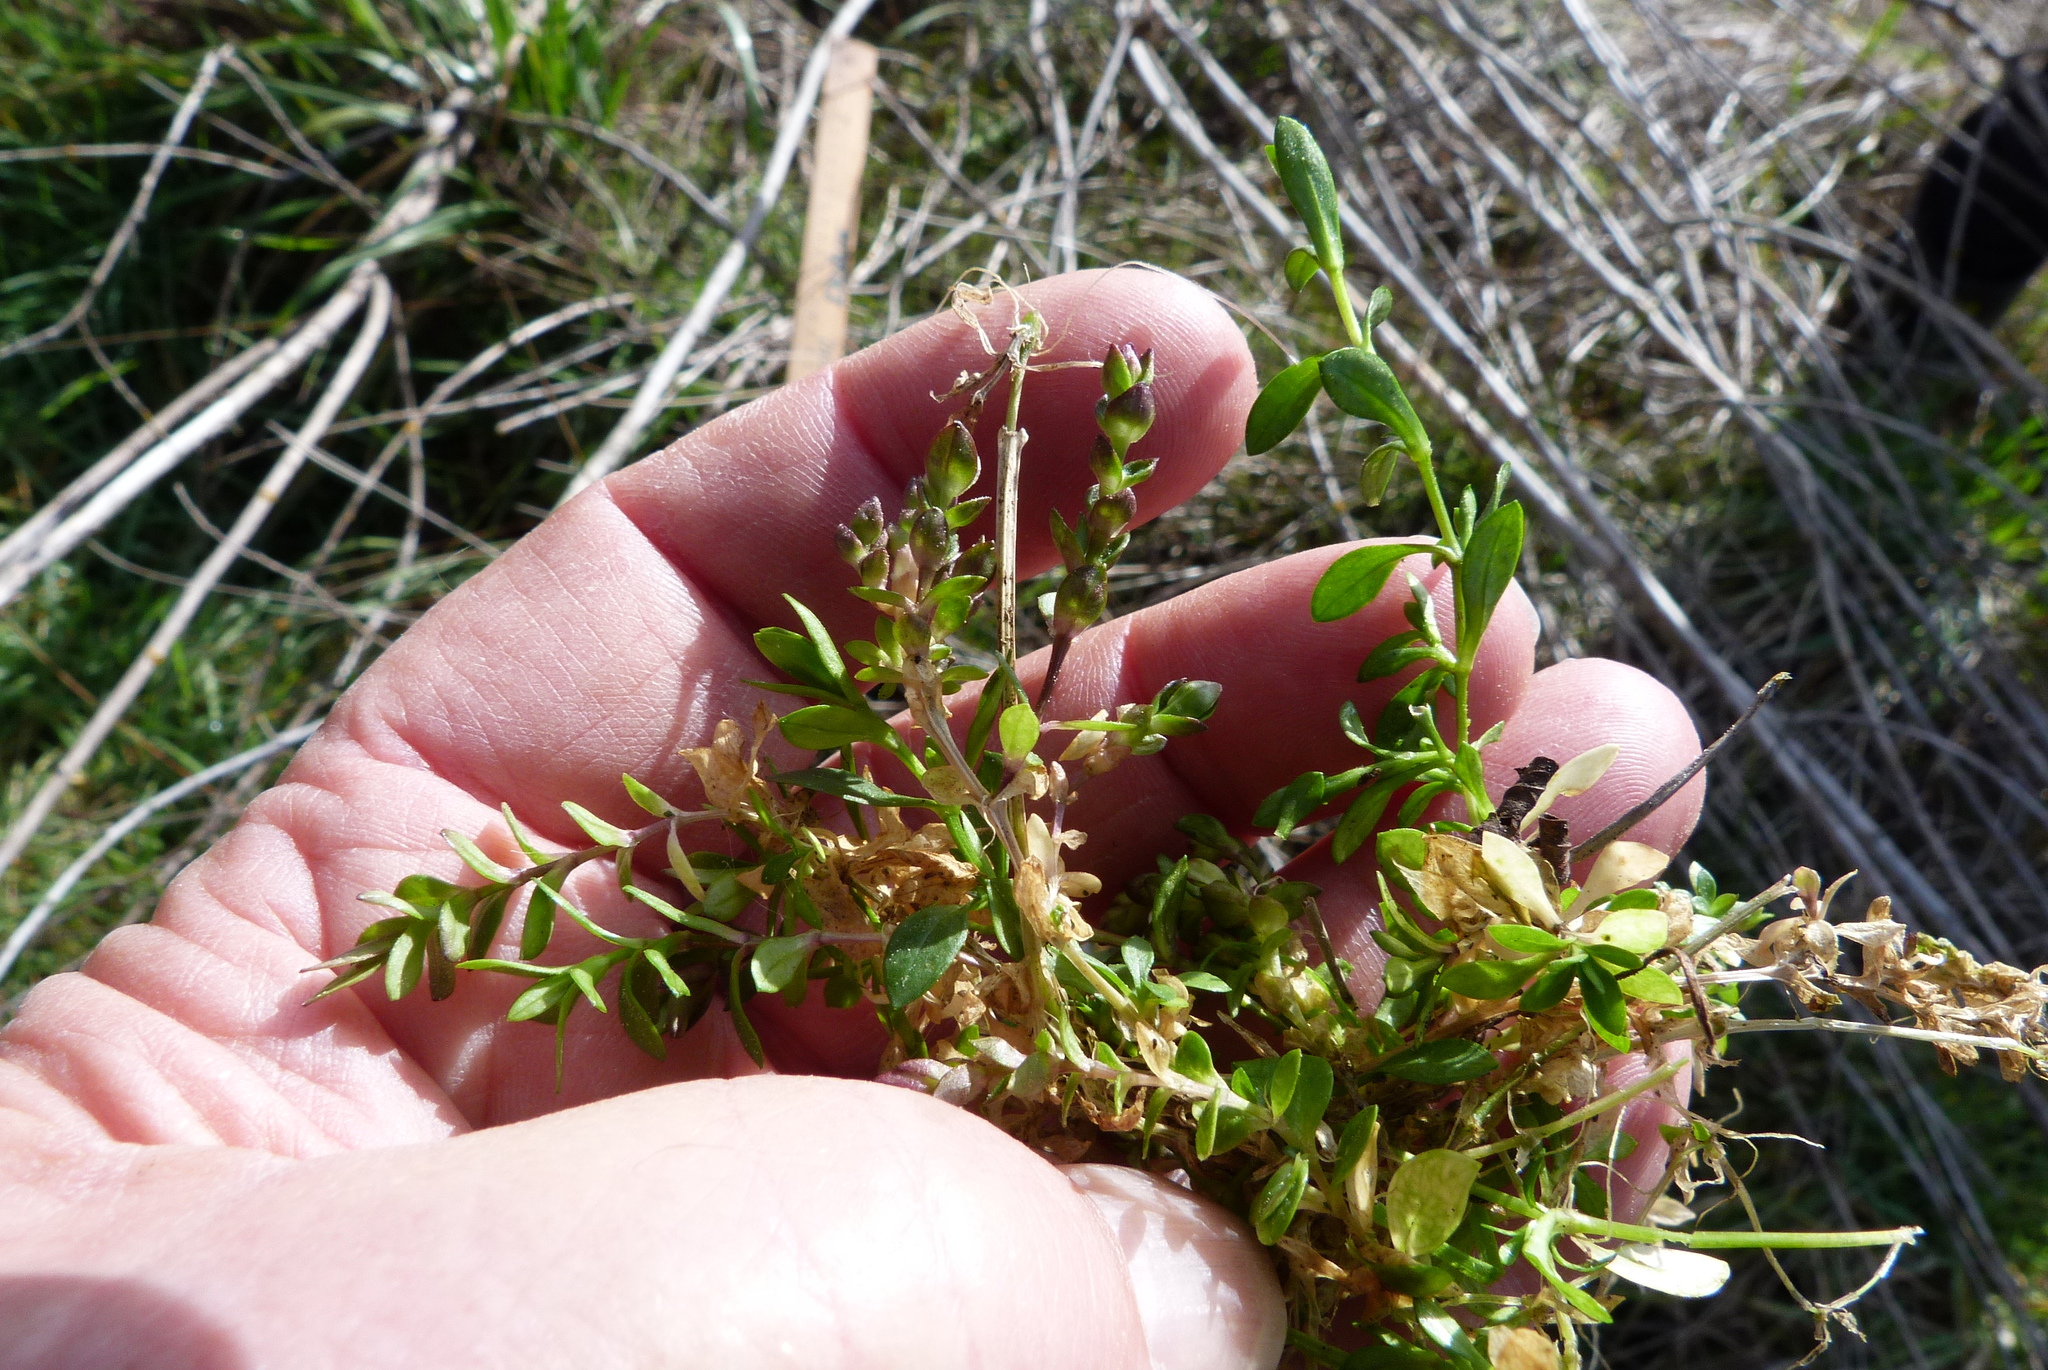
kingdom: Plantae
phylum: Tracheophyta
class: Magnoliopsida
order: Caryophyllales
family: Caryophyllaceae
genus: Stellaria
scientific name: Stellaria alsine
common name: Bog stitchwort
